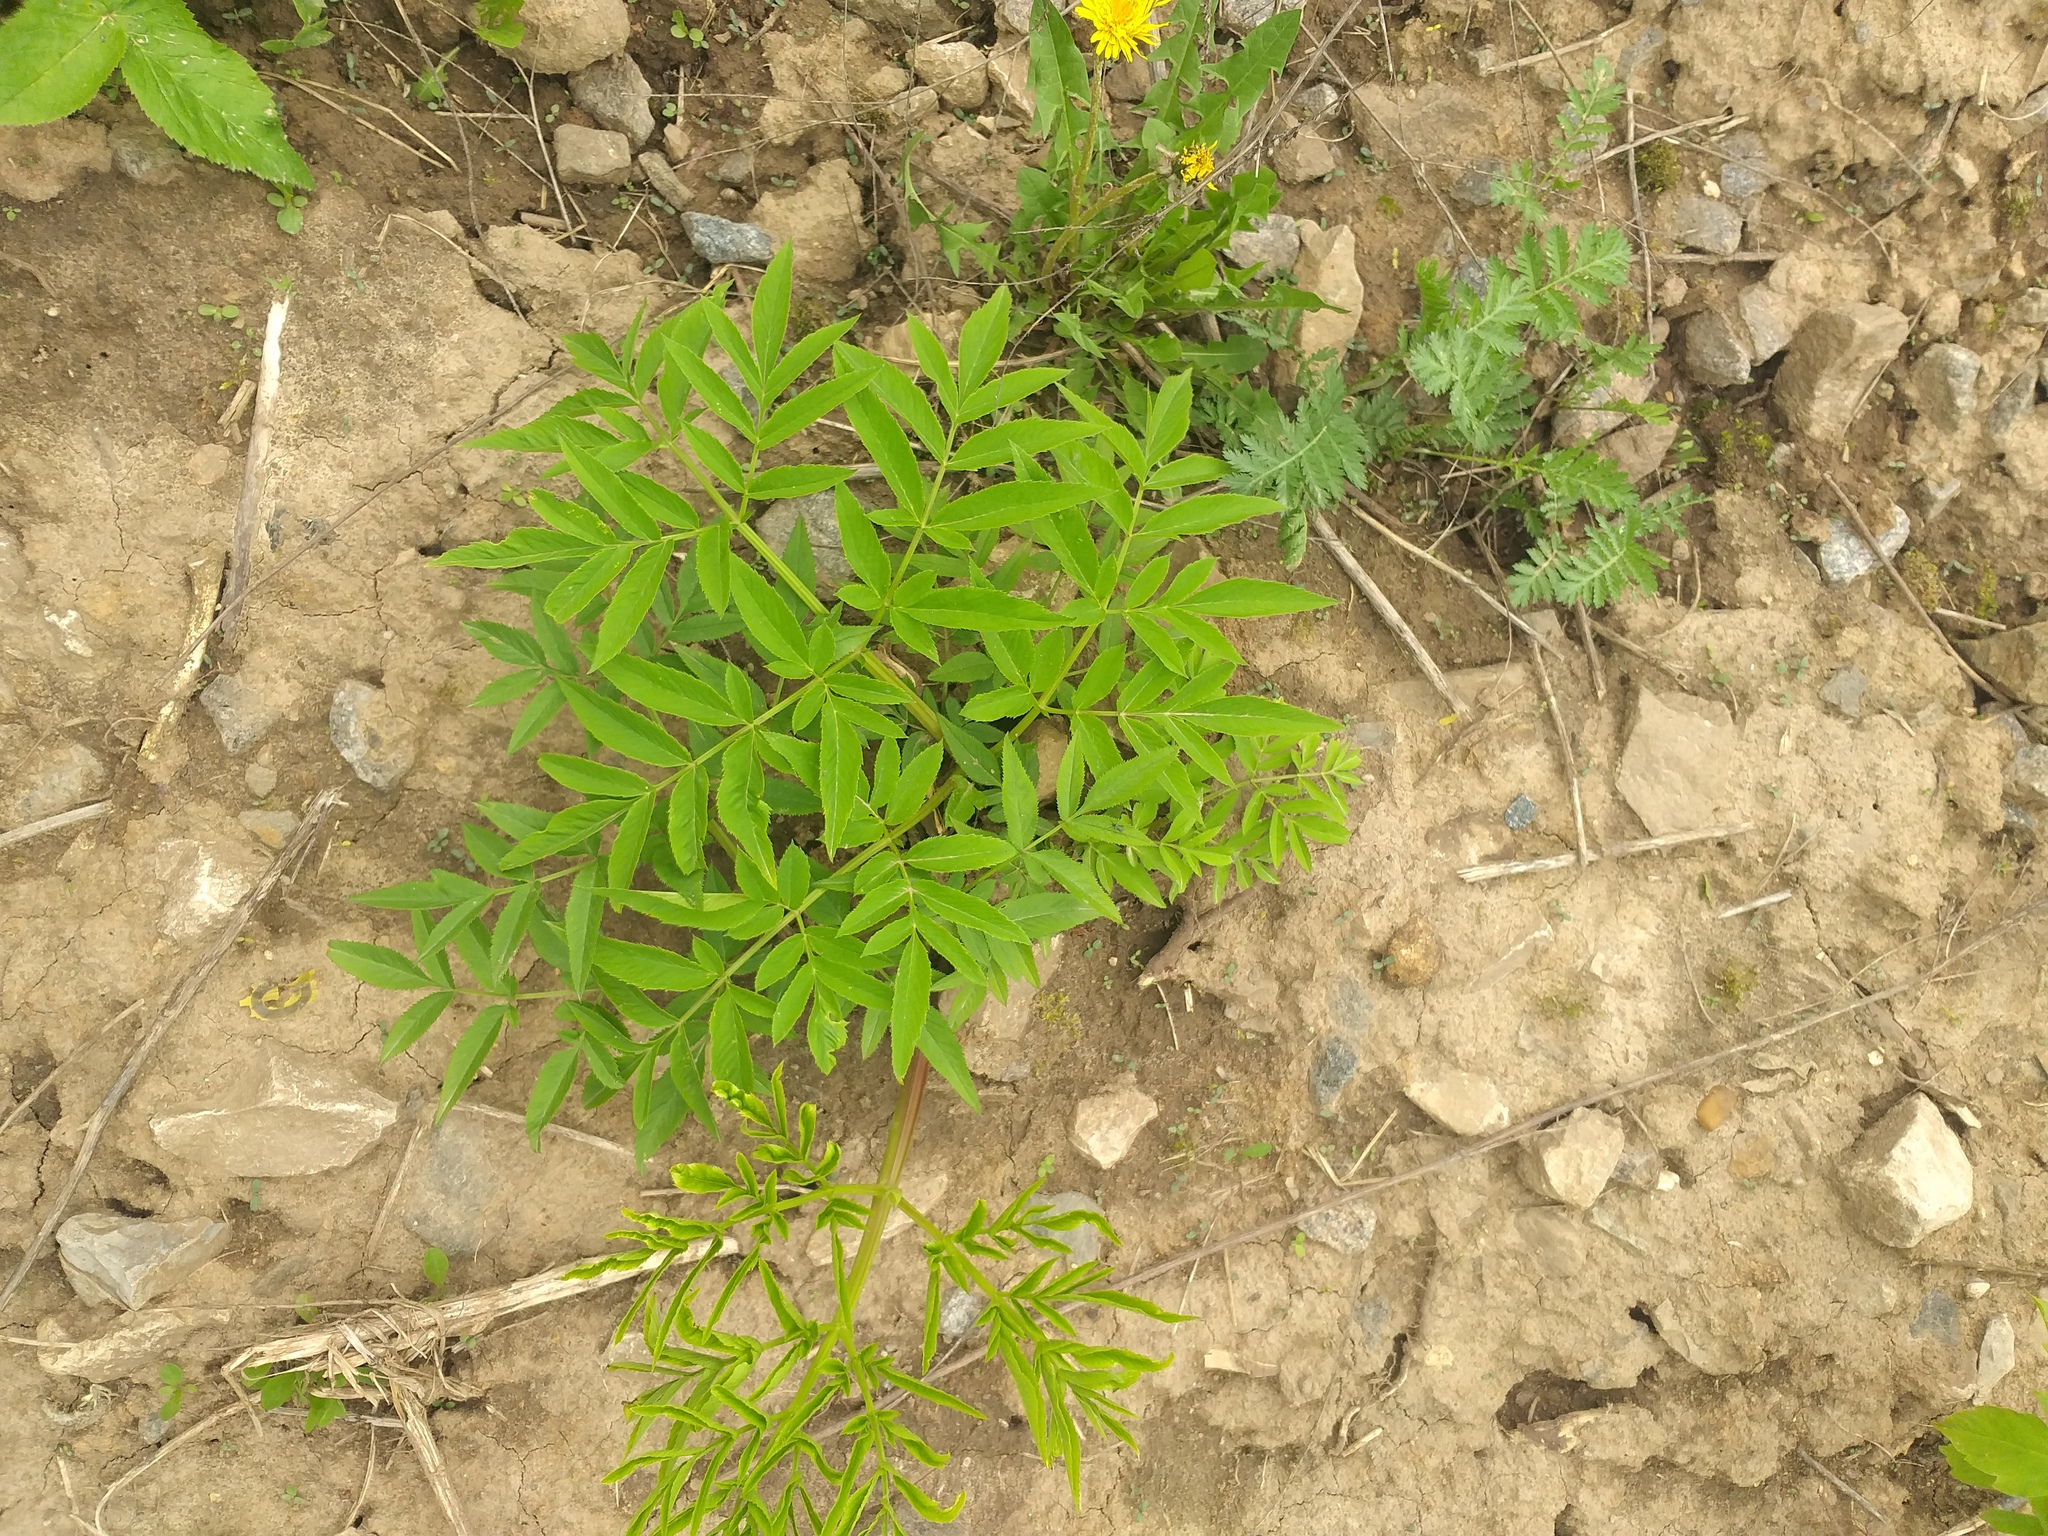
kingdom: Plantae
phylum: Tracheophyta
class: Magnoliopsida
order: Apiales
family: Apiaceae
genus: Angelica
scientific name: Angelica sylvestris
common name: Wild angelica
